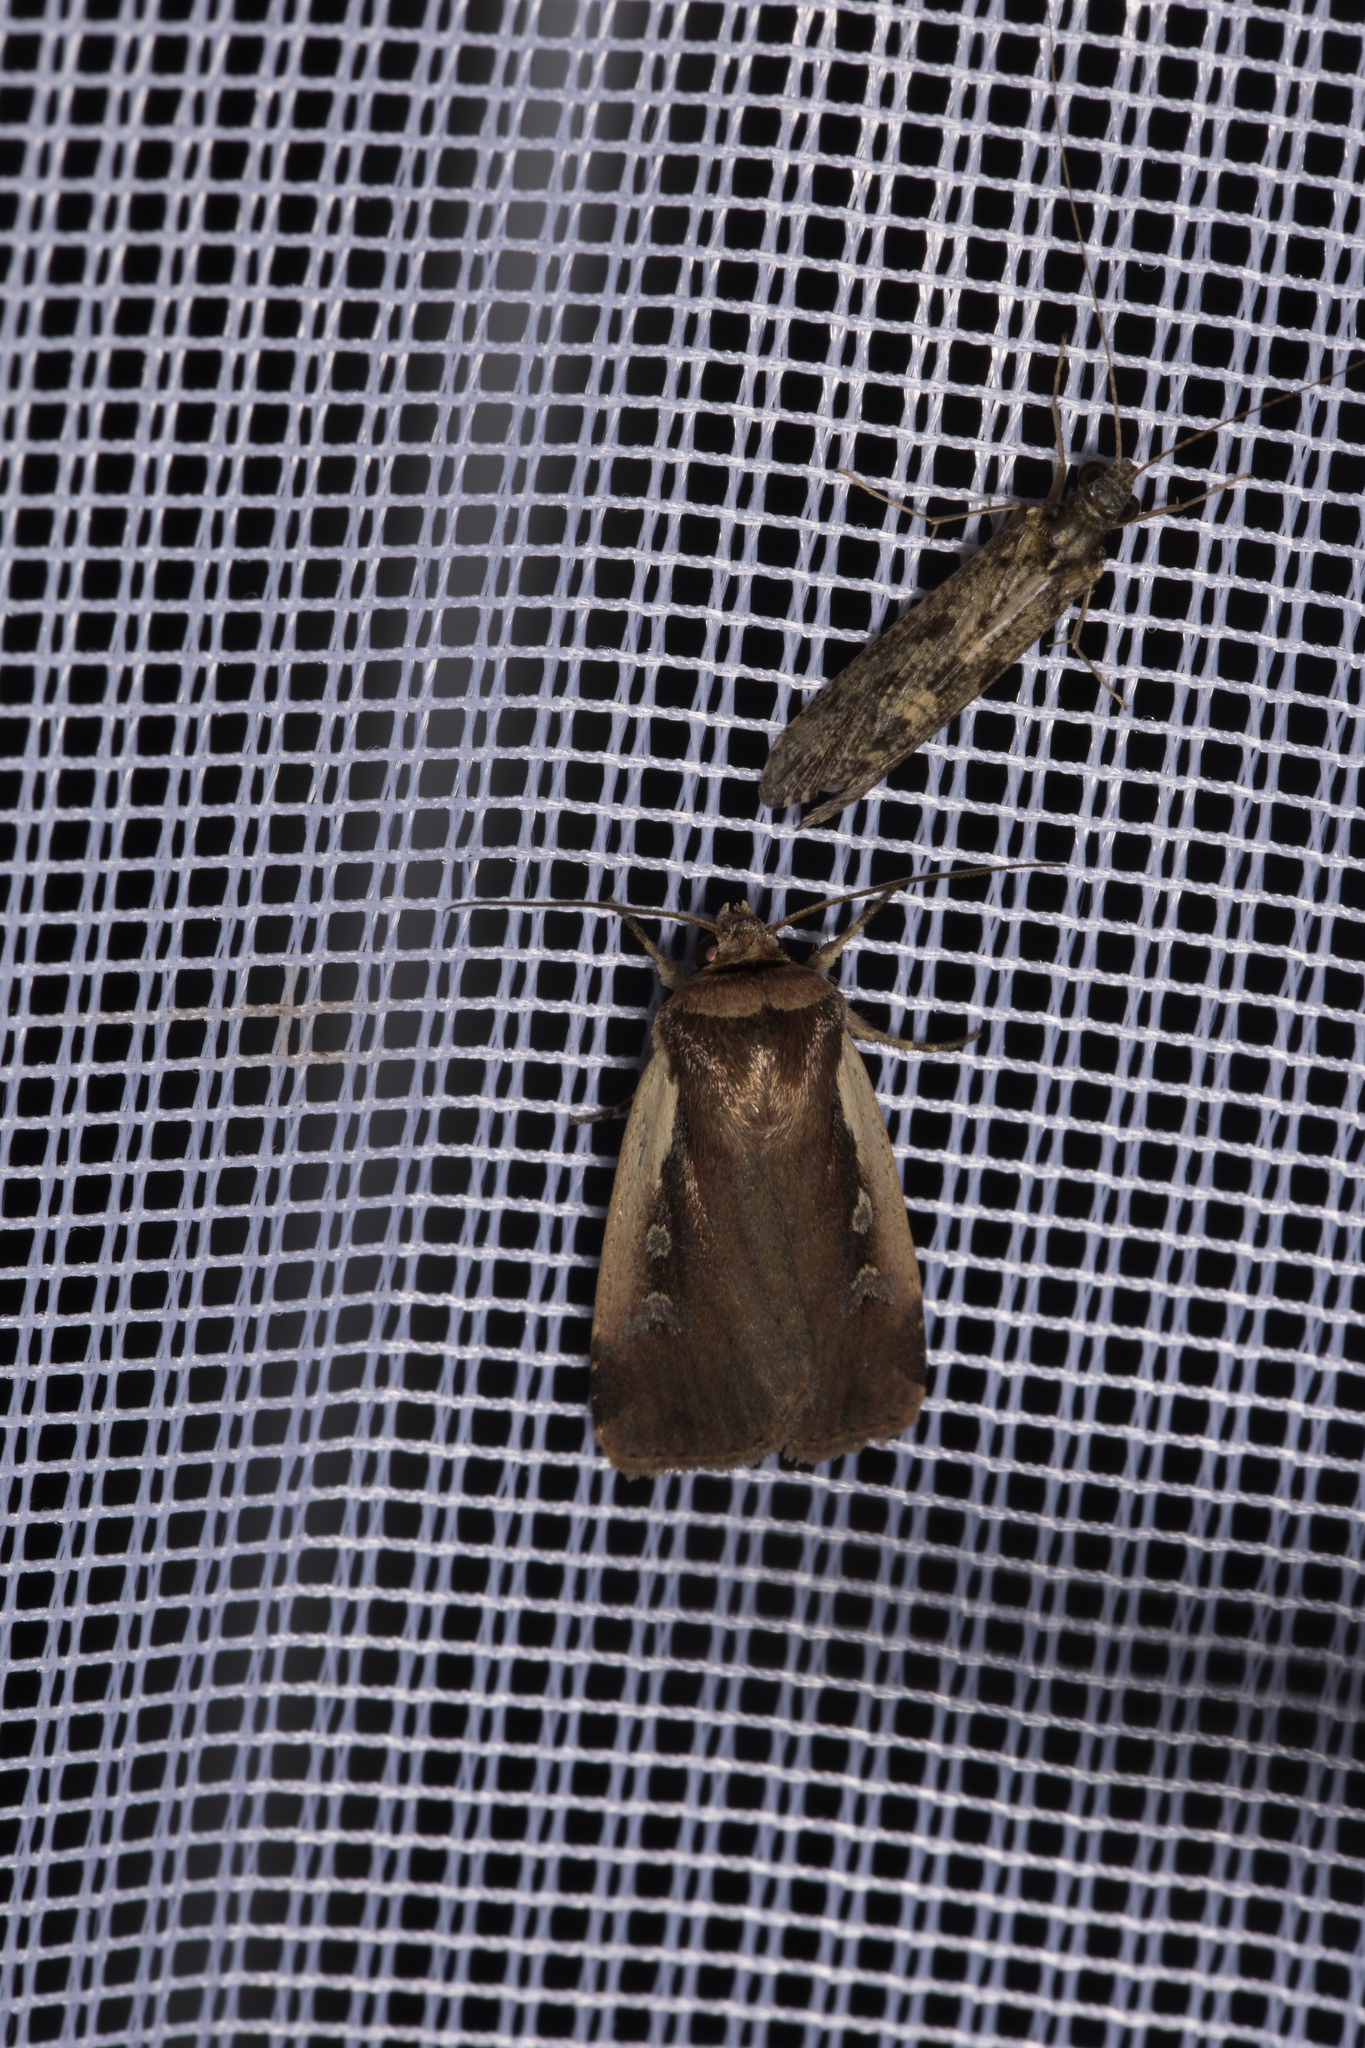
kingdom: Animalia
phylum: Arthropoda
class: Insecta
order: Lepidoptera
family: Noctuidae
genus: Ochropleura
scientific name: Ochropleura plecta
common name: Flame shoulder
